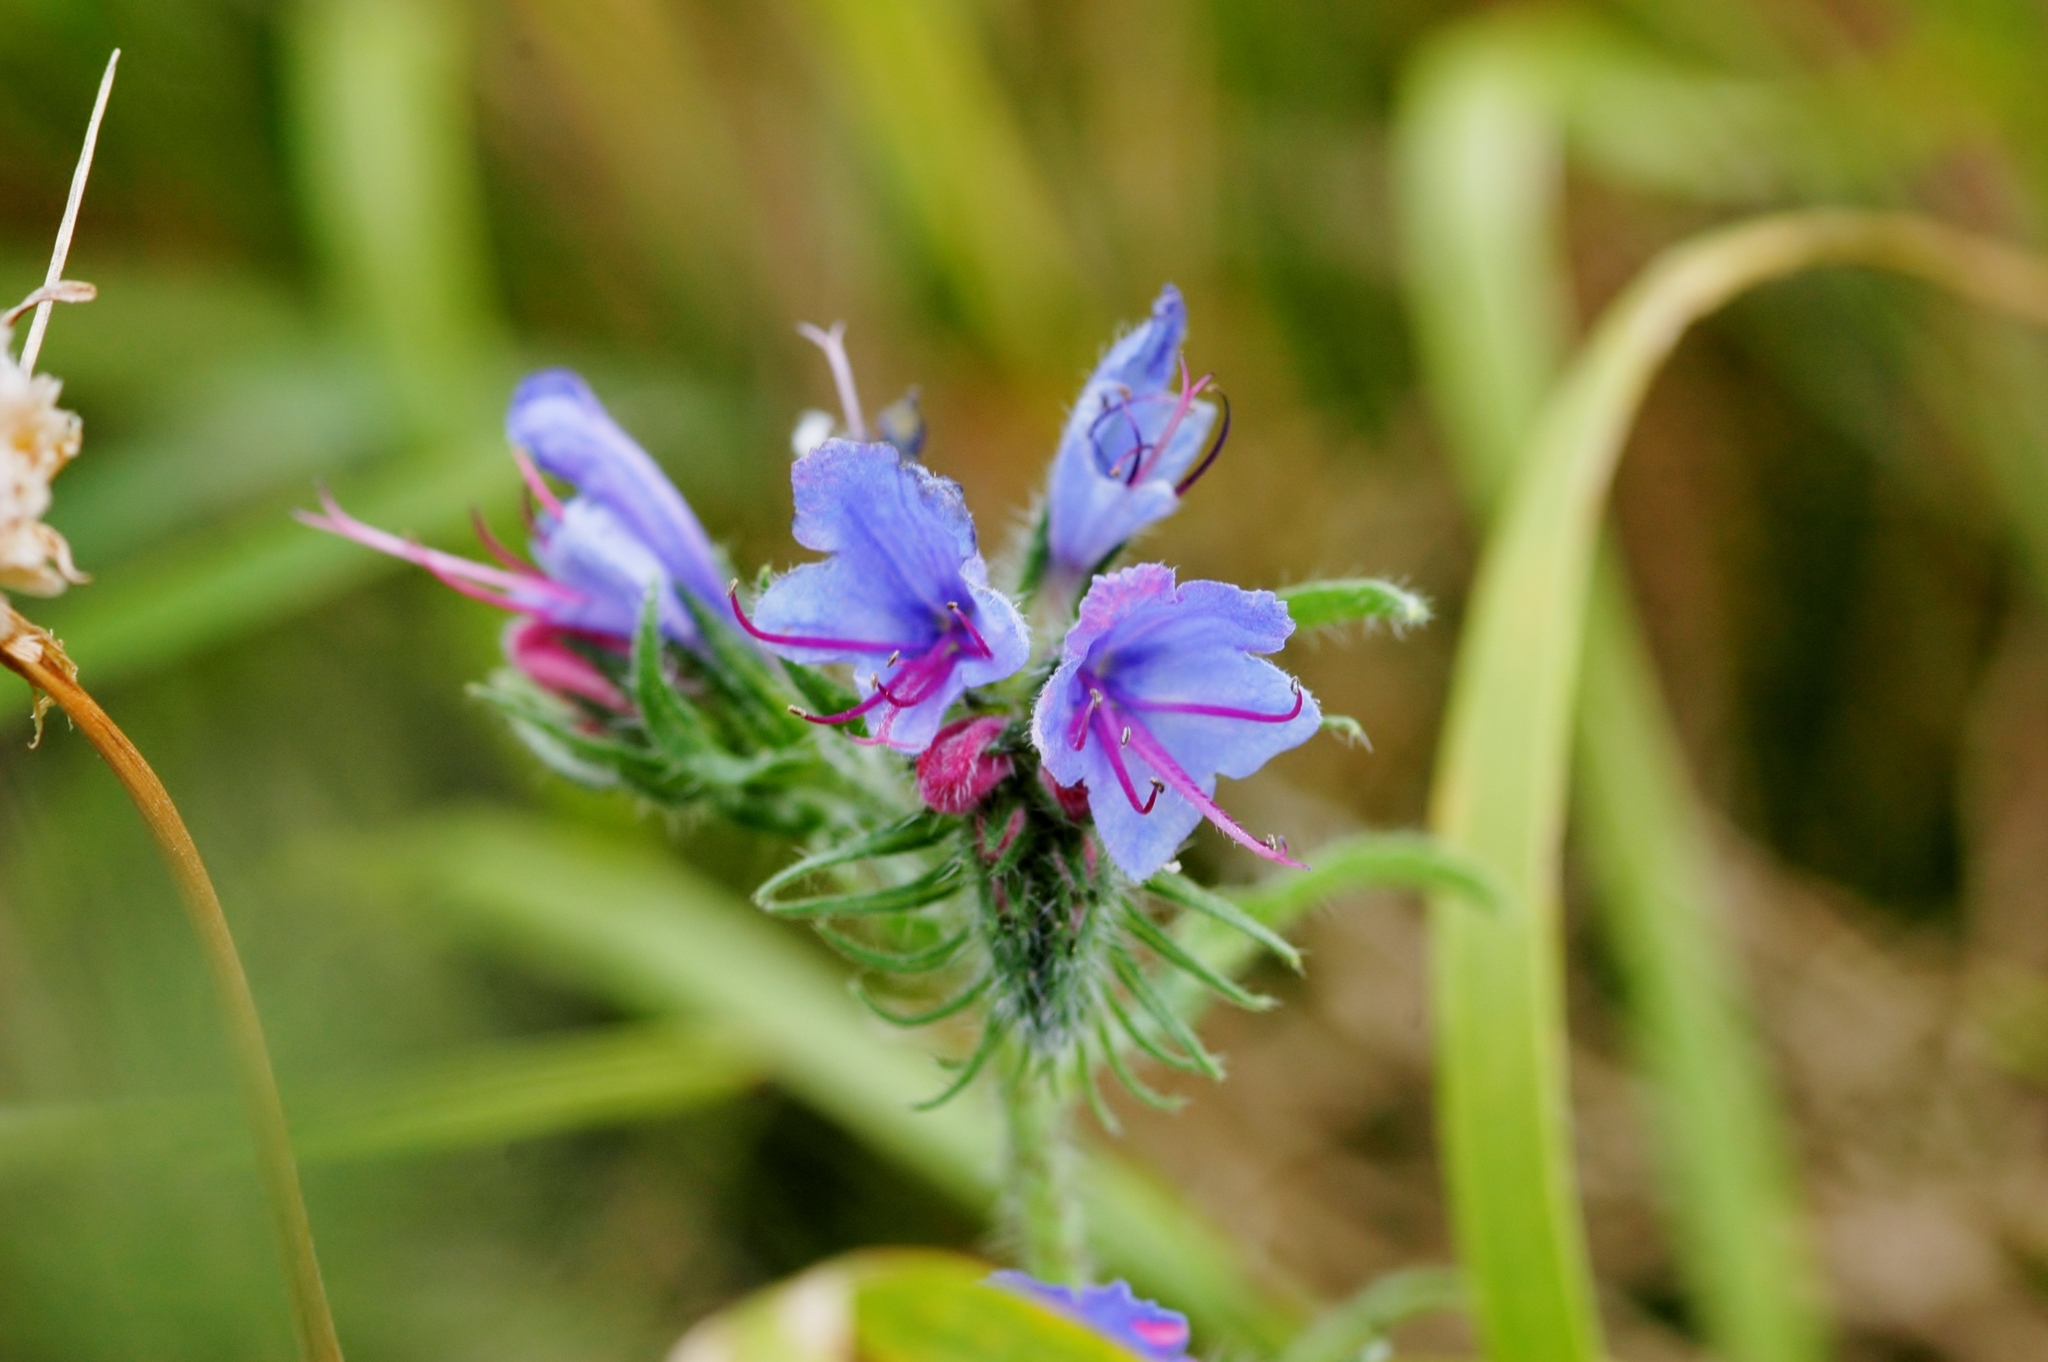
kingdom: Plantae
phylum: Tracheophyta
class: Magnoliopsida
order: Boraginales
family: Boraginaceae
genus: Echium
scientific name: Echium vulgare
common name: Common viper's bugloss
